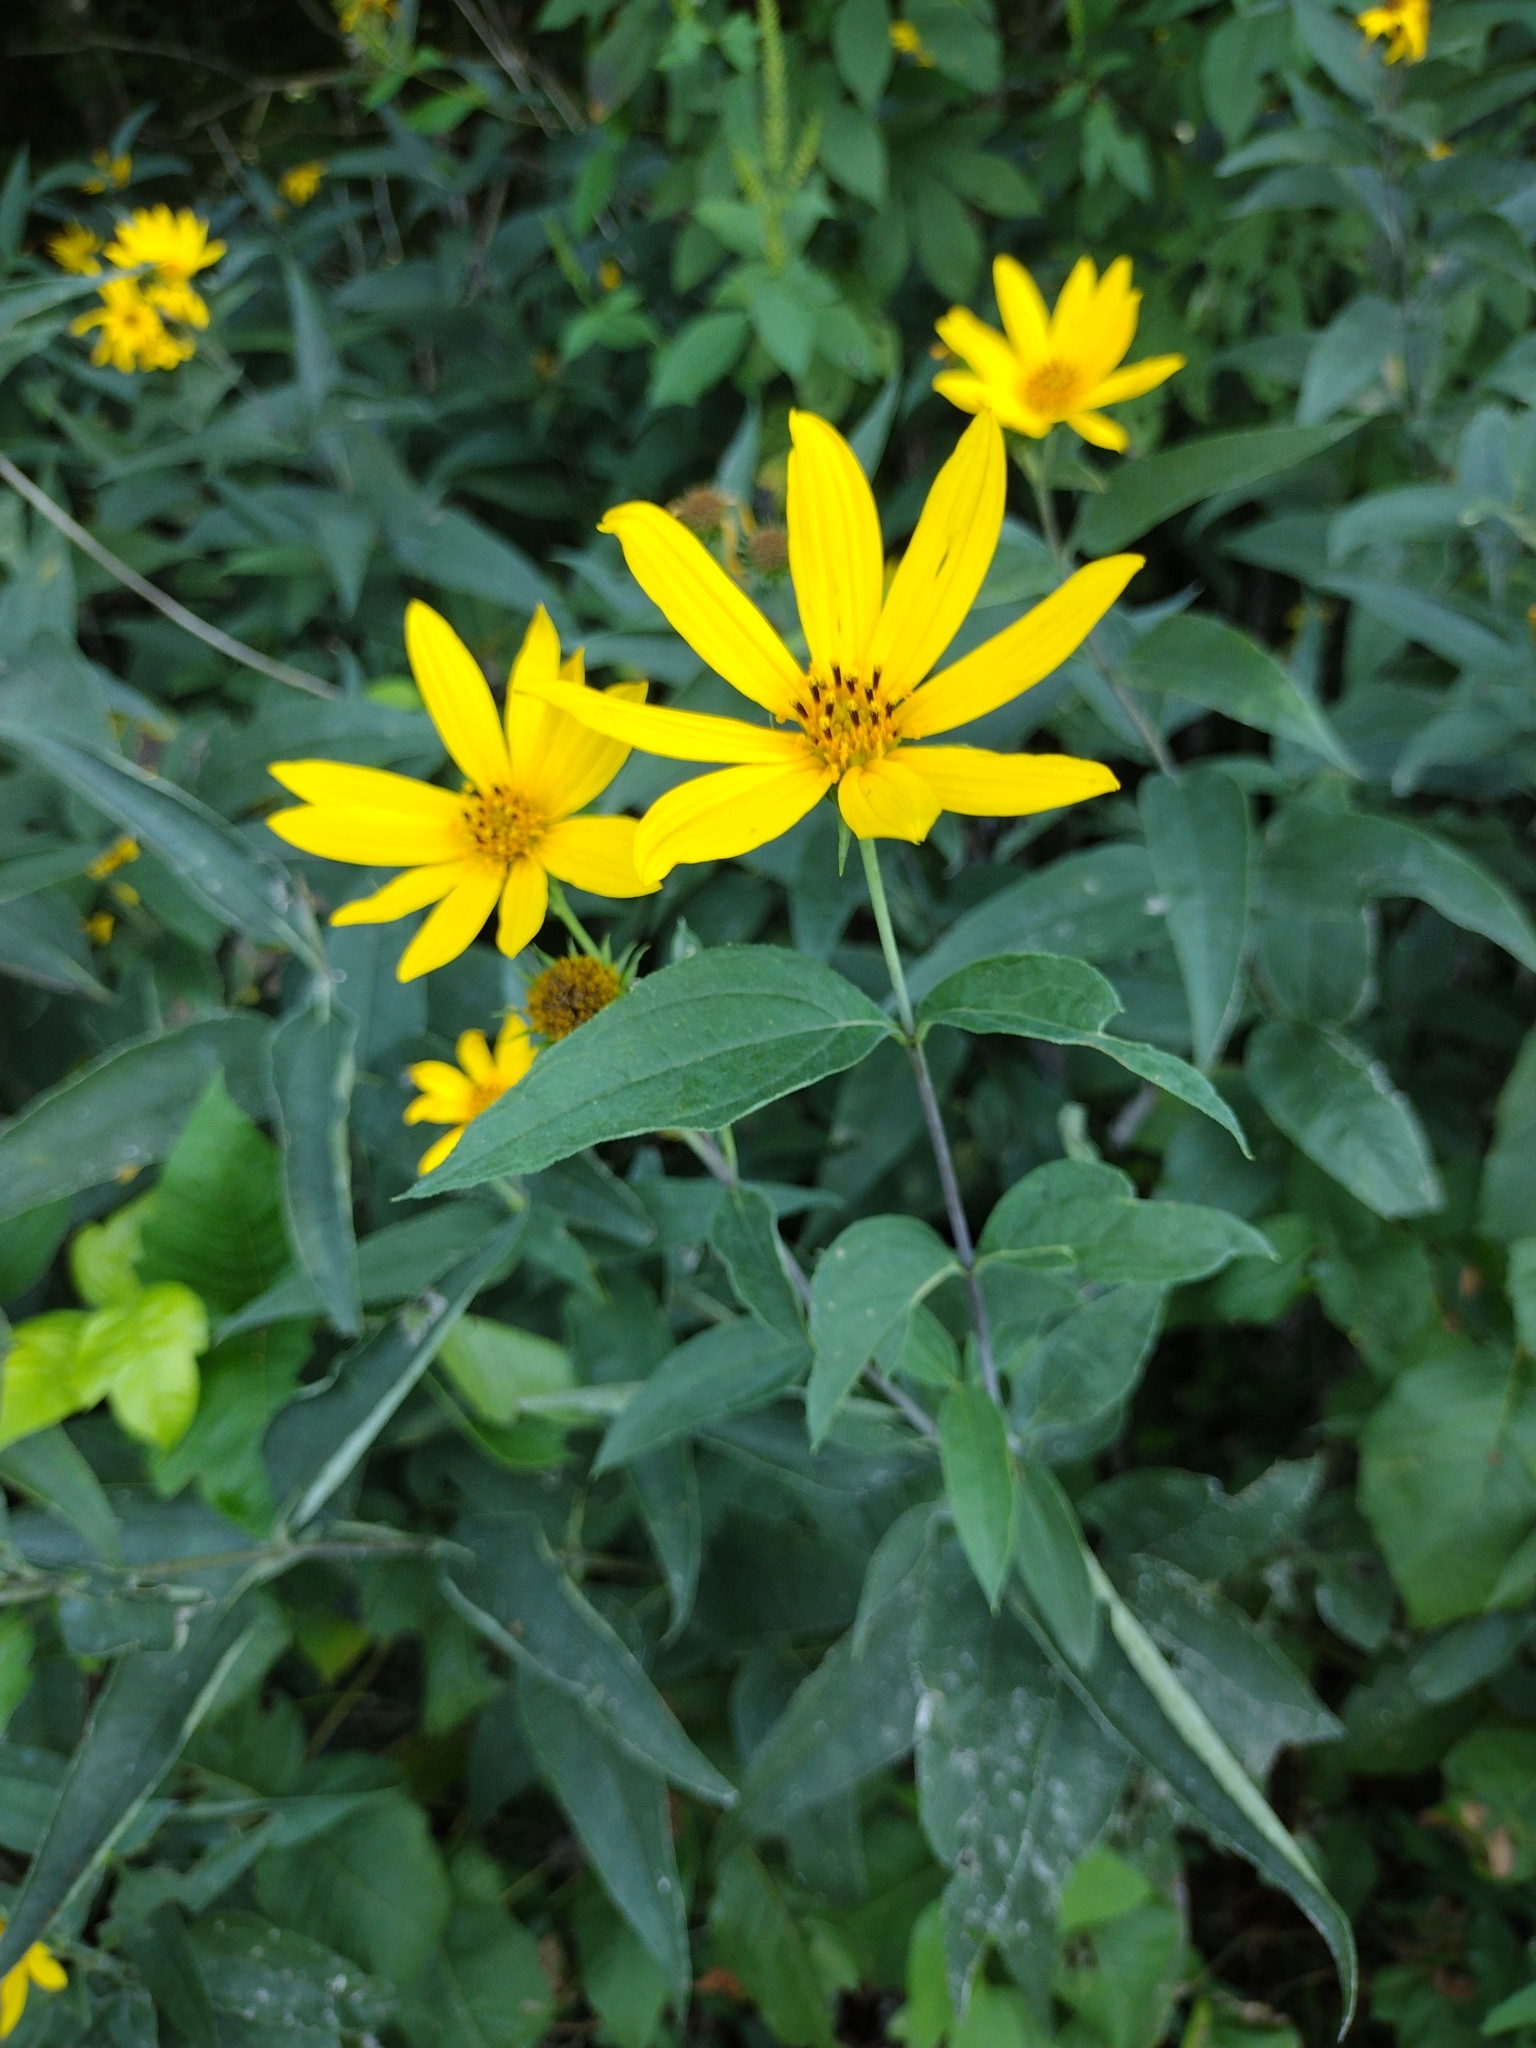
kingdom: Plantae
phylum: Tracheophyta
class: Magnoliopsida
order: Asterales
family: Asteraceae
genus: Helianthus
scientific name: Helianthus strumosus
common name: Pale-leaved sunflower
